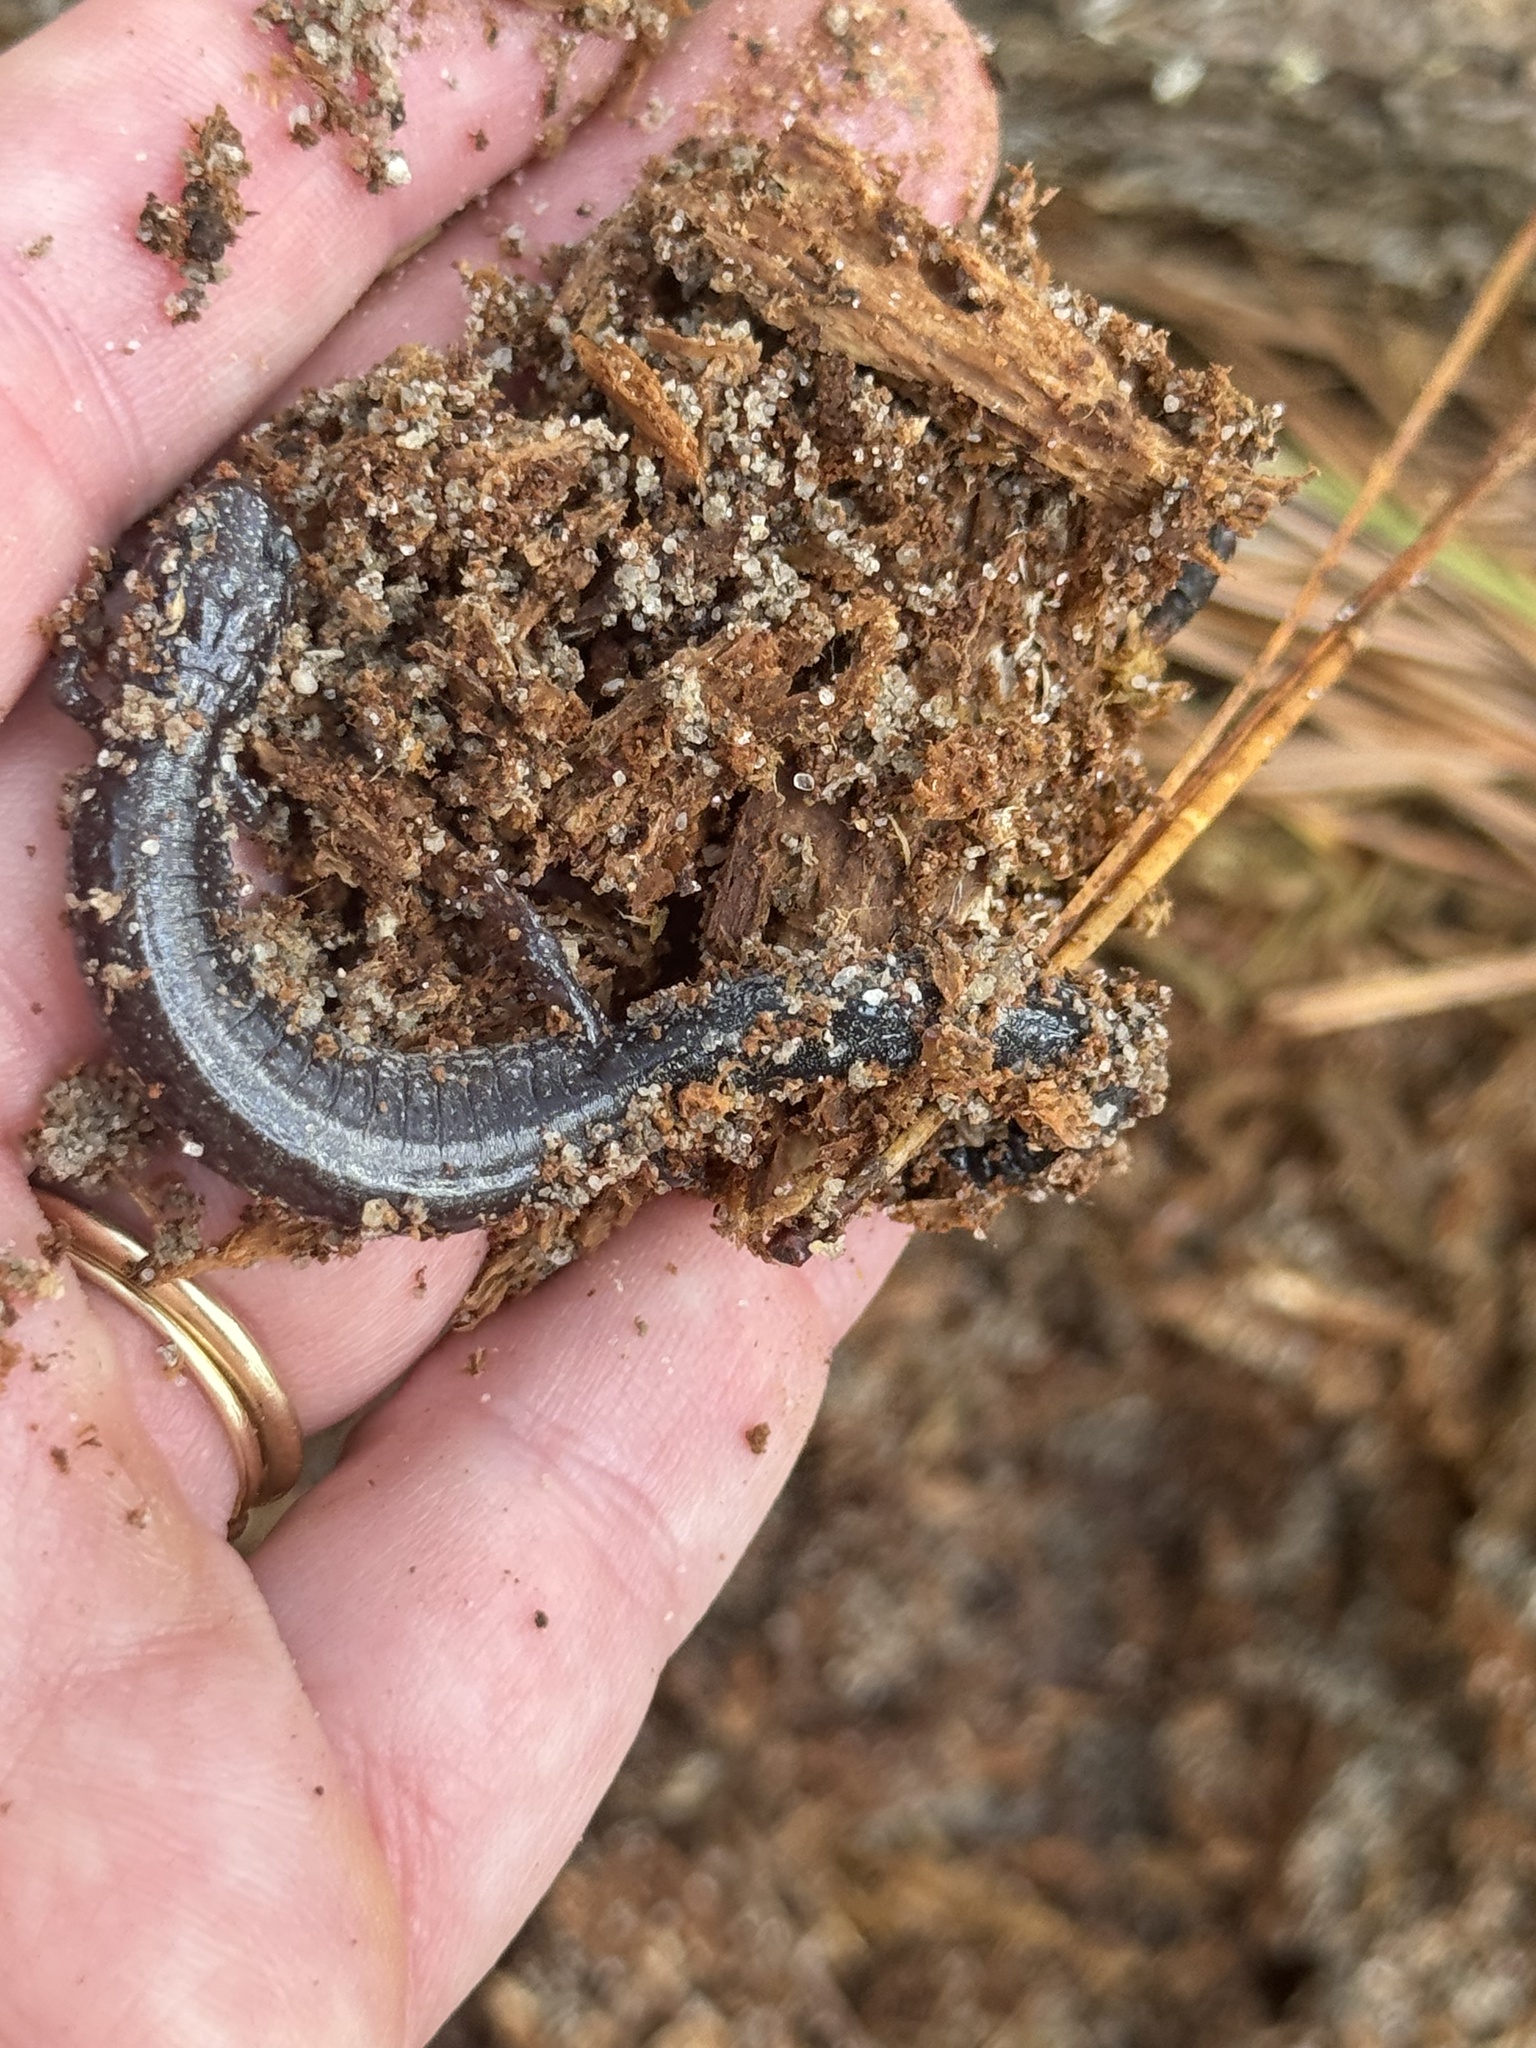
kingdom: Animalia
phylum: Chordata
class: Amphibia
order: Caudata
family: Plethodontidae
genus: Plethodon
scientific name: Plethodon cinereus
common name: Redback salamander
